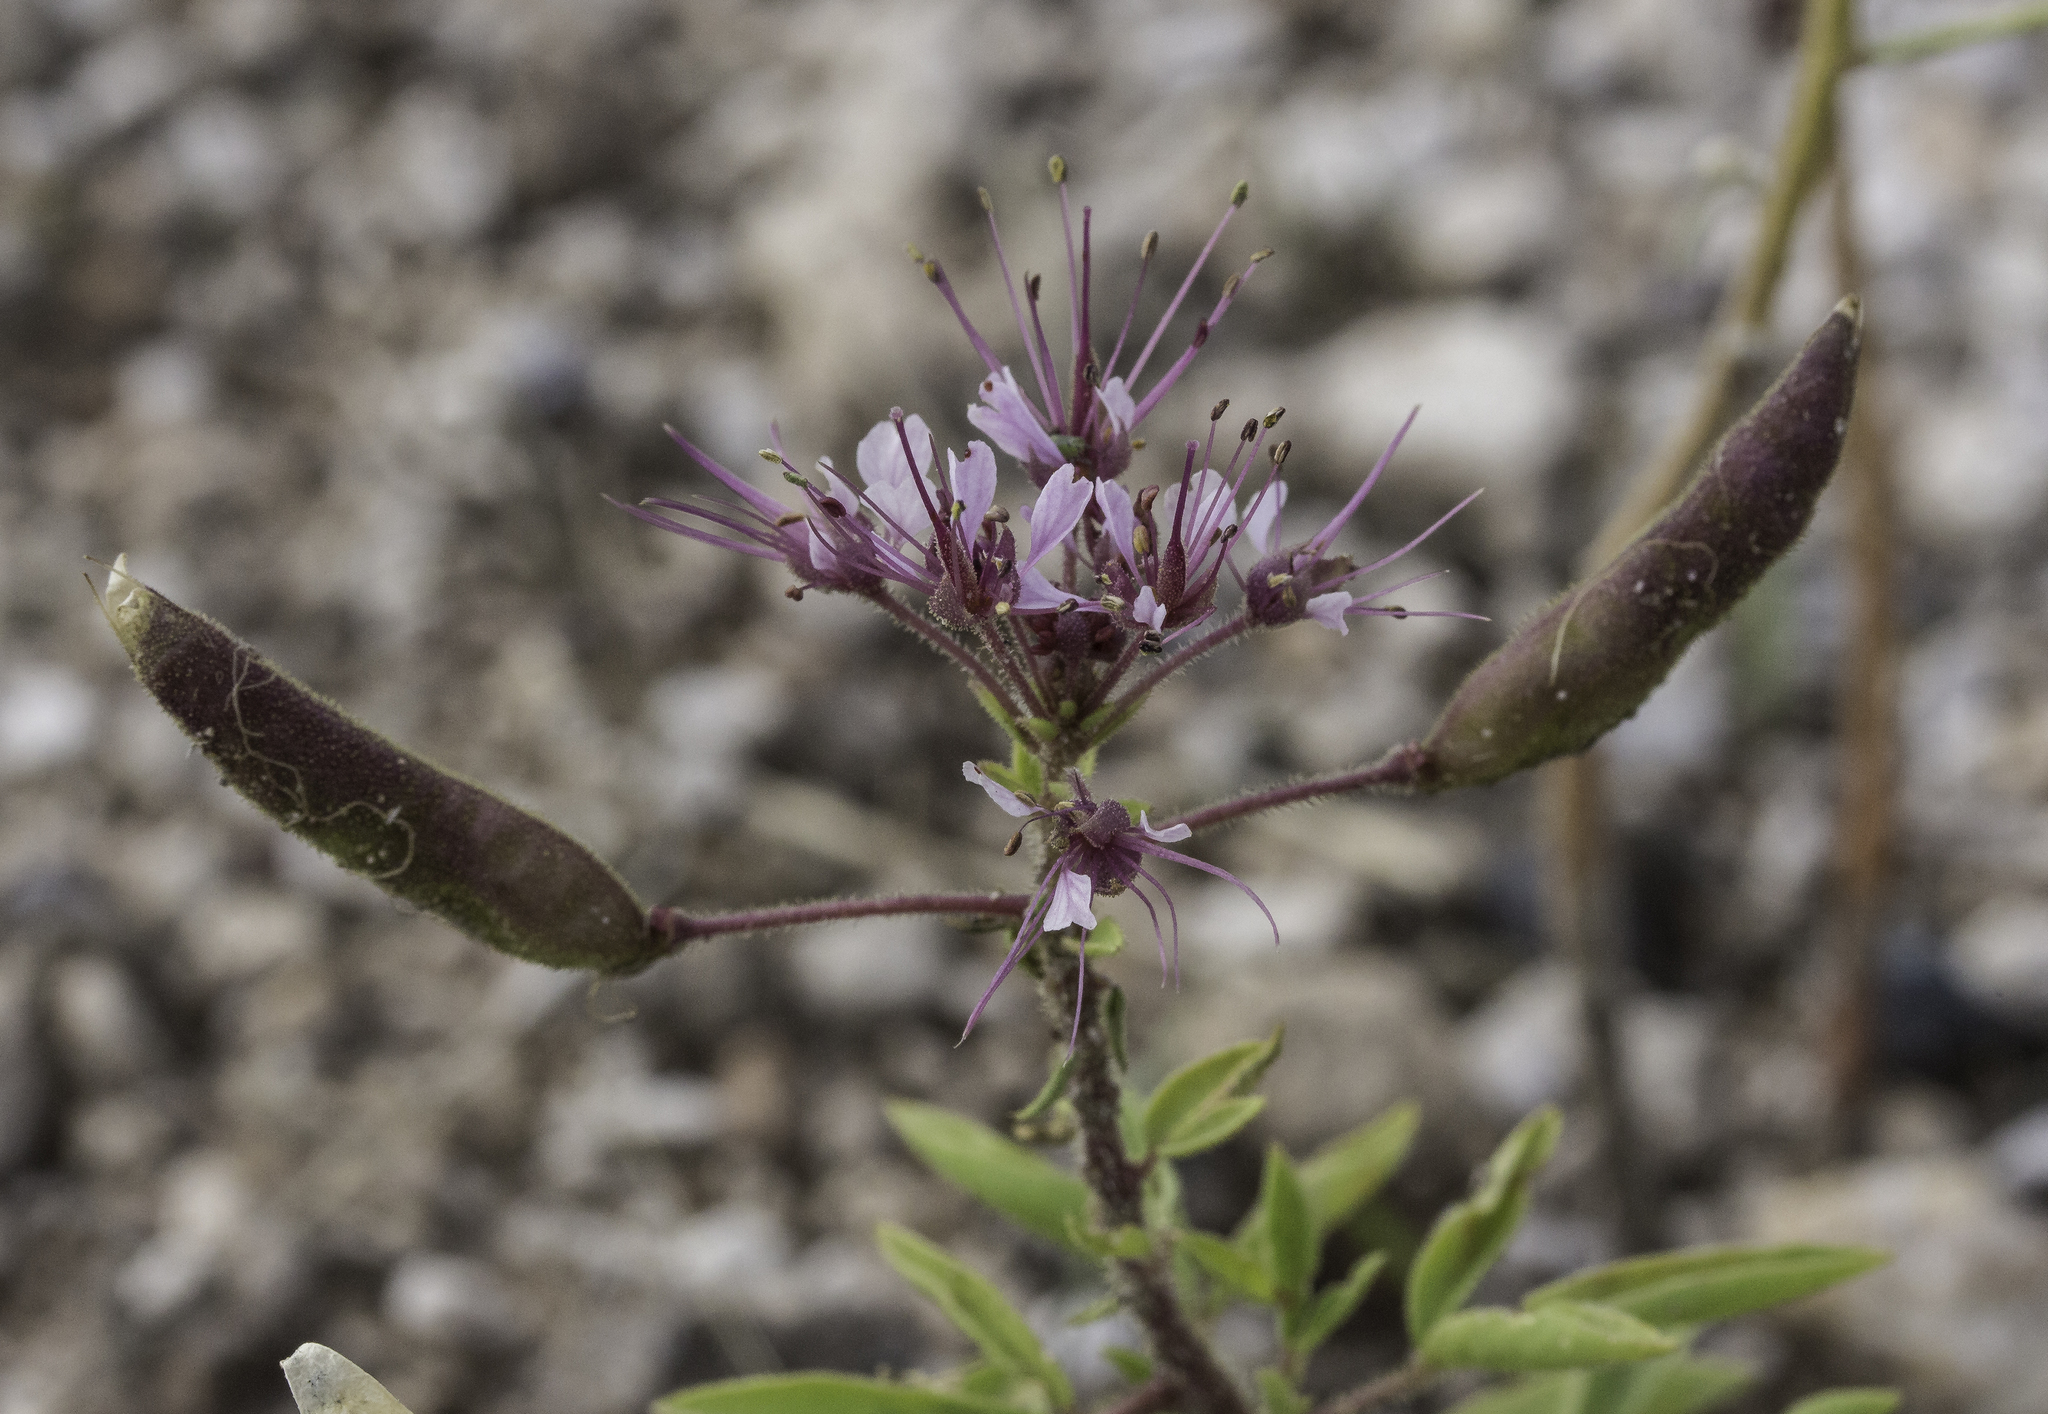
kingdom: Plantae
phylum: Tracheophyta
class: Magnoliopsida
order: Brassicales
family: Cleomaceae
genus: Polanisia
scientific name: Polanisia dodecandra
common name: Clammyweed
